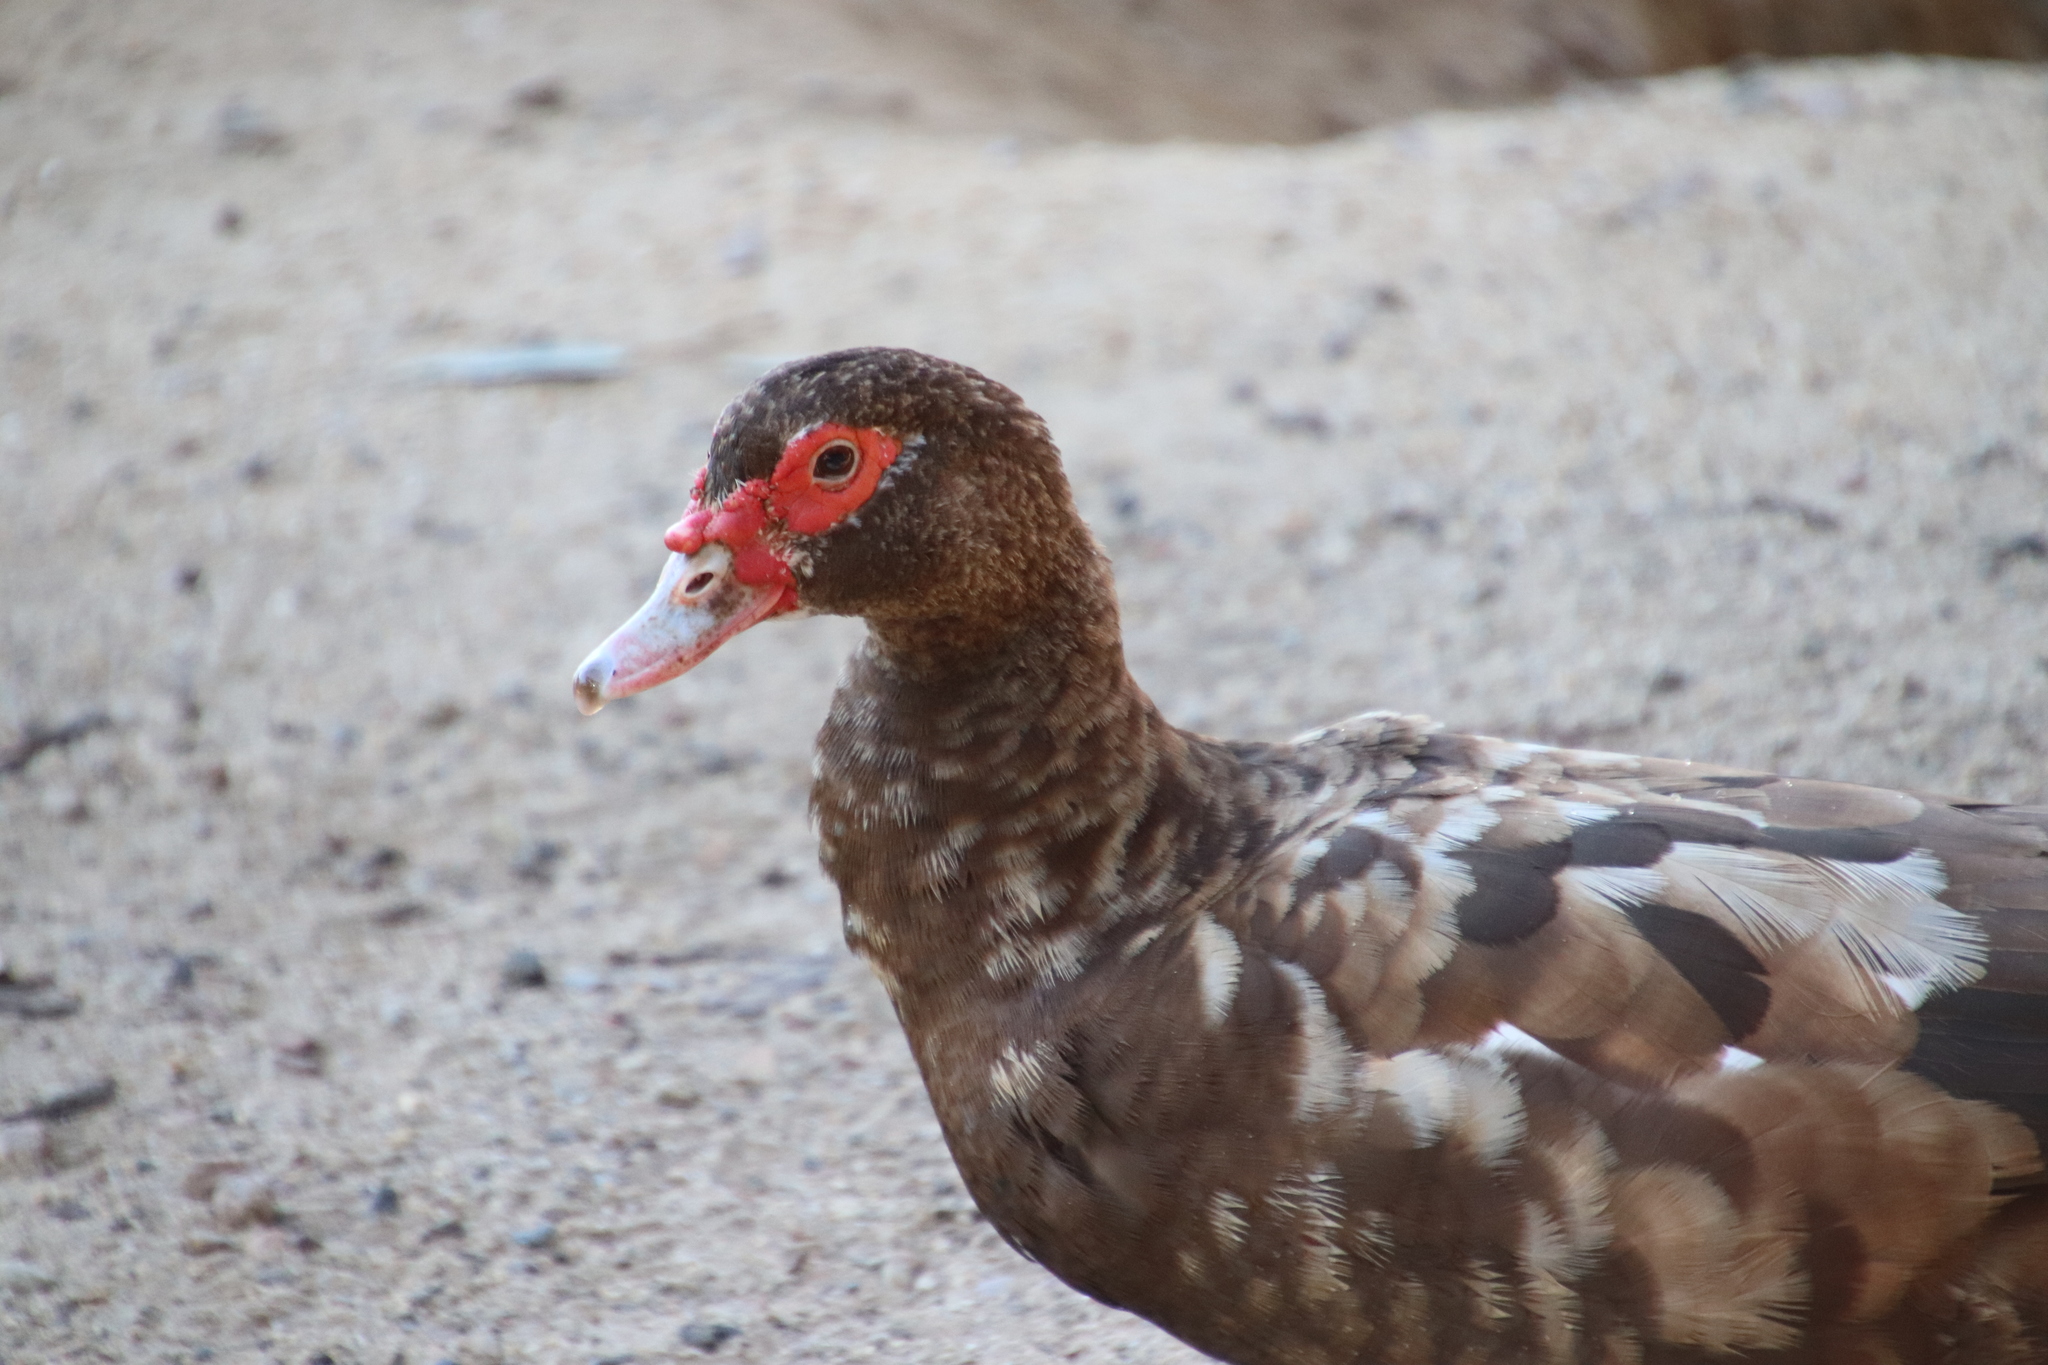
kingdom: Animalia
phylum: Chordata
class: Aves
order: Anseriformes
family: Anatidae
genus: Cairina
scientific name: Cairina moschata
